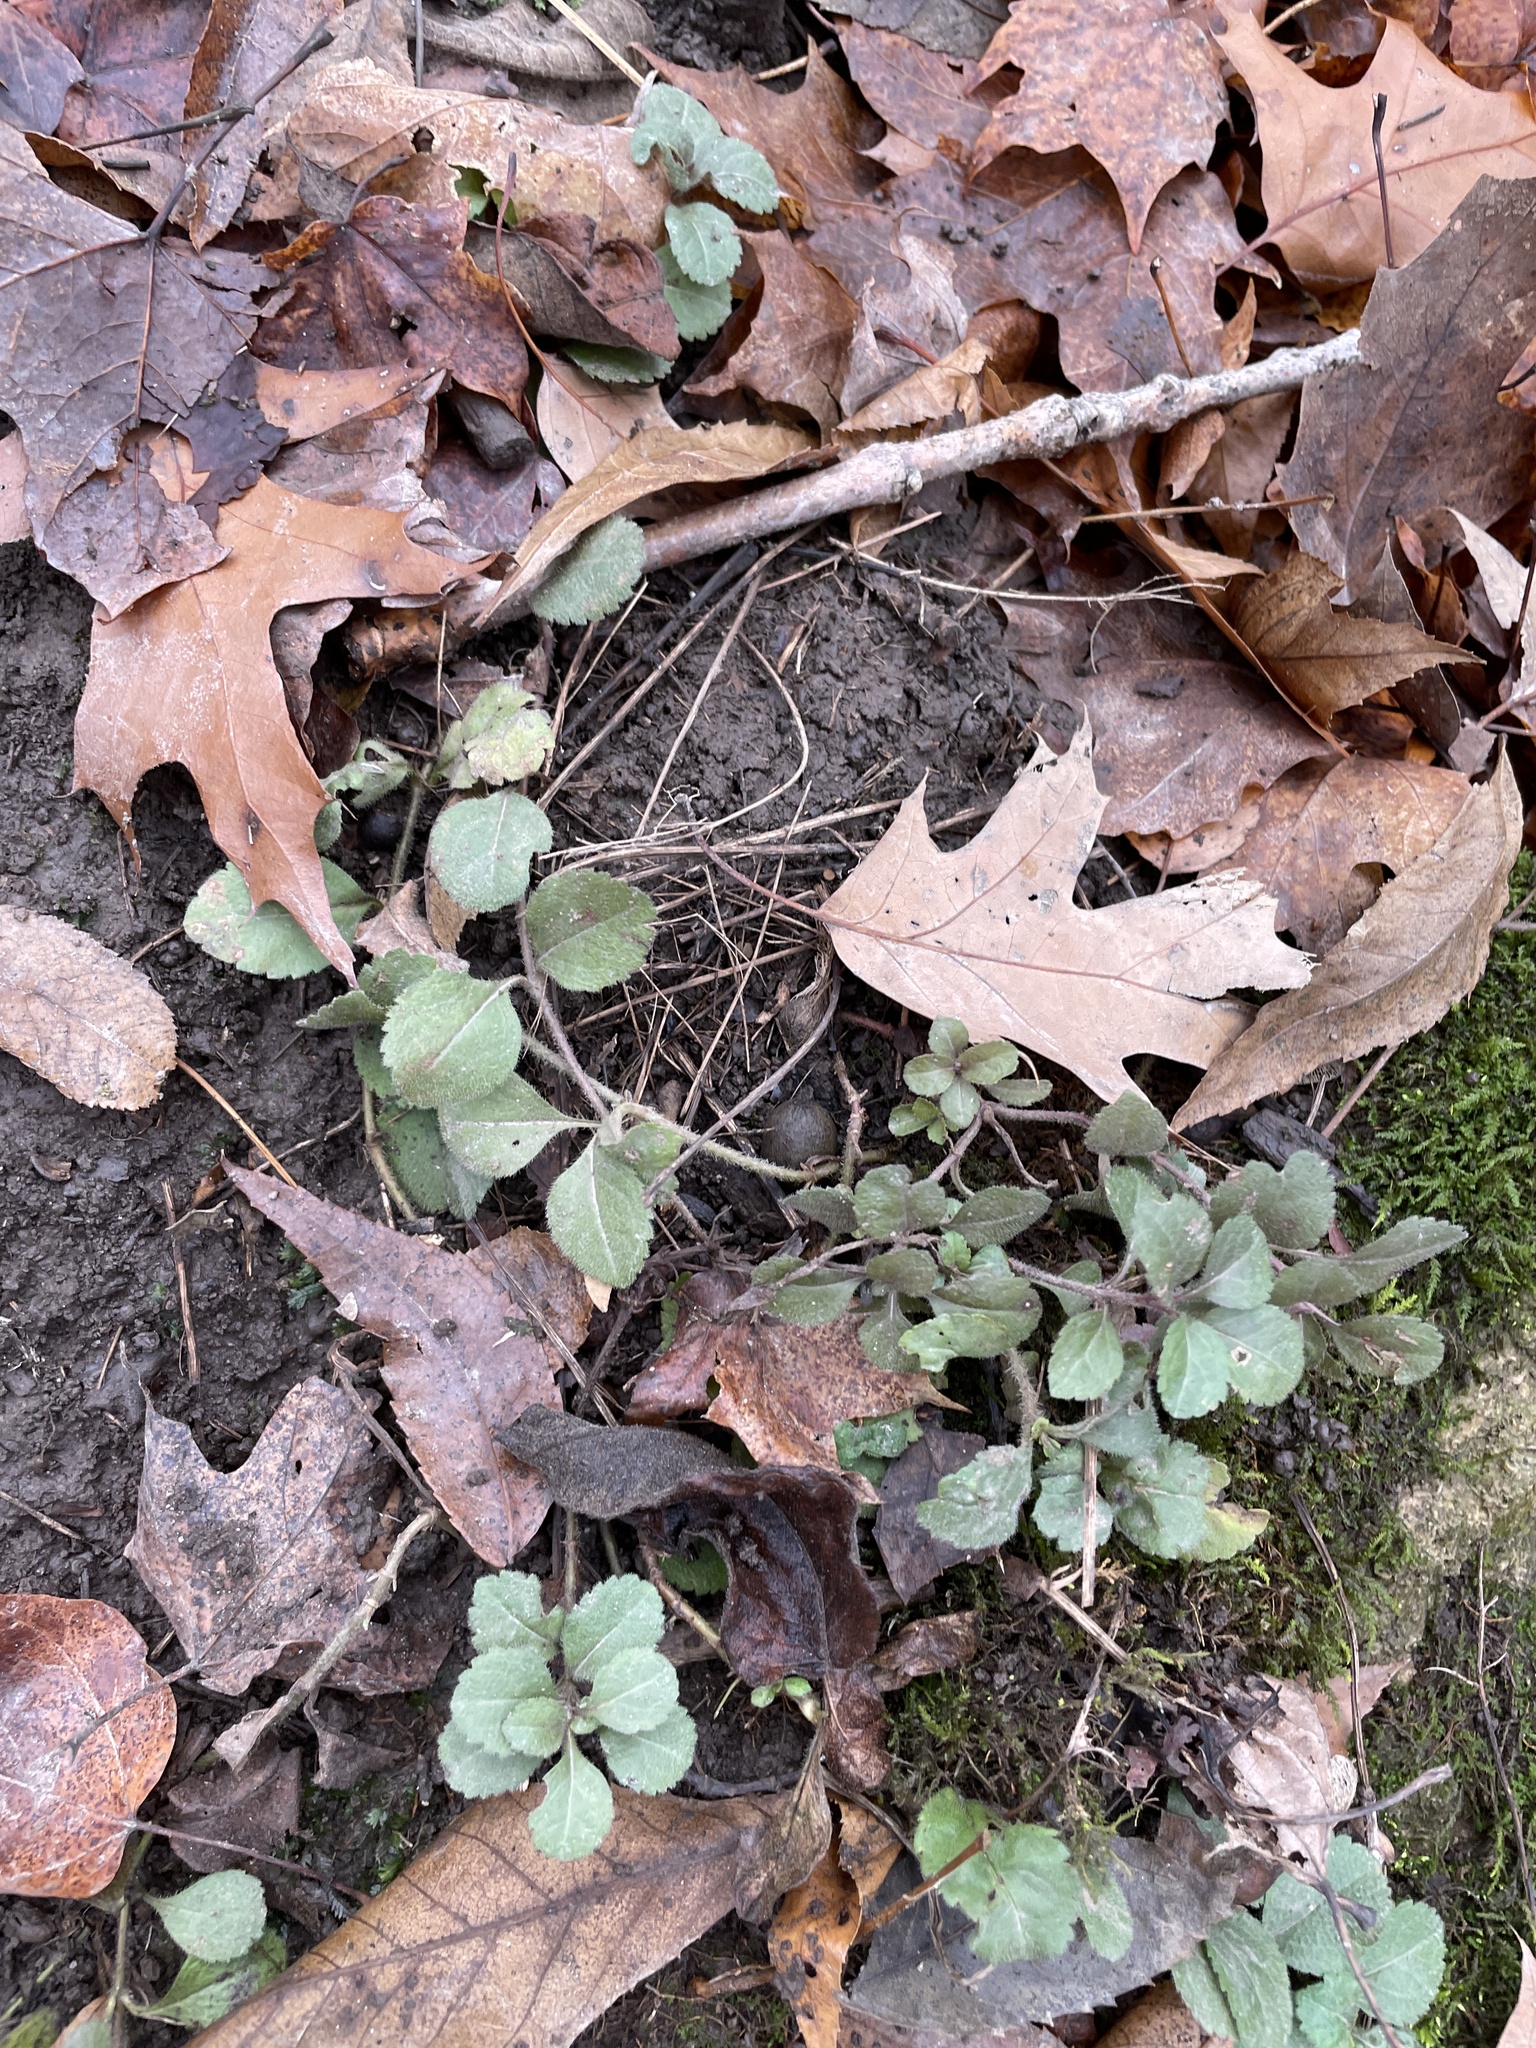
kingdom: Plantae
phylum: Tracheophyta
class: Magnoliopsida
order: Lamiales
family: Plantaginaceae
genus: Veronica
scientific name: Veronica officinalis
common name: Common speedwell
